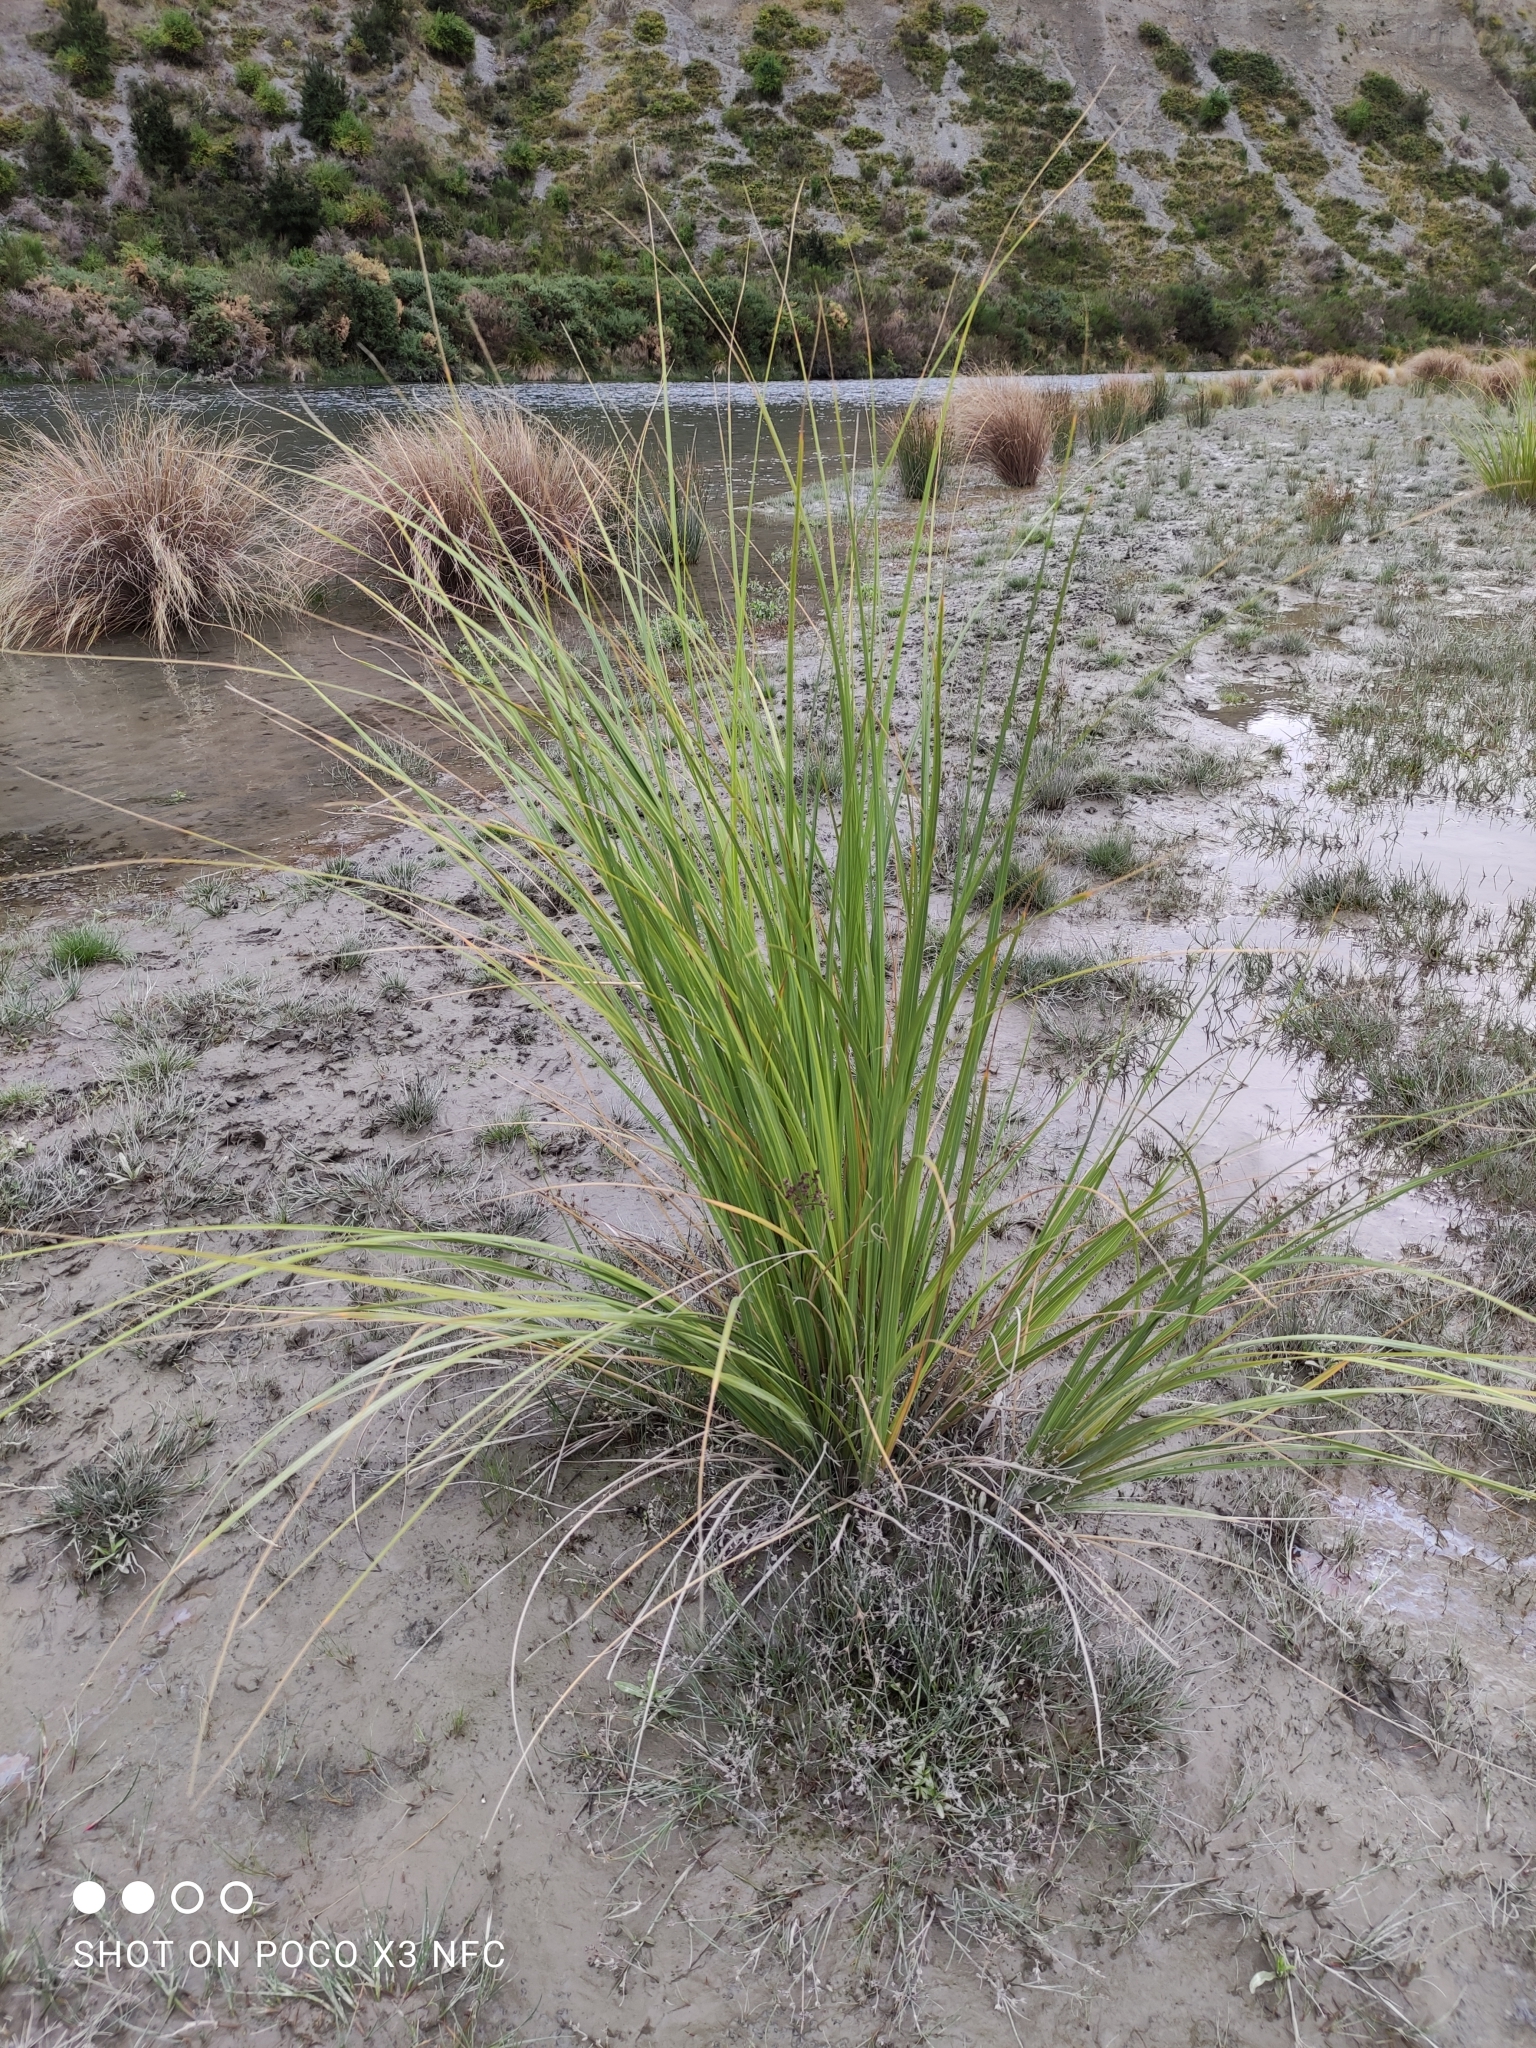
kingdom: Plantae
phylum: Tracheophyta
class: Liliopsida
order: Poales
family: Poaceae
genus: Austroderia
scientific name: Austroderia richardii
